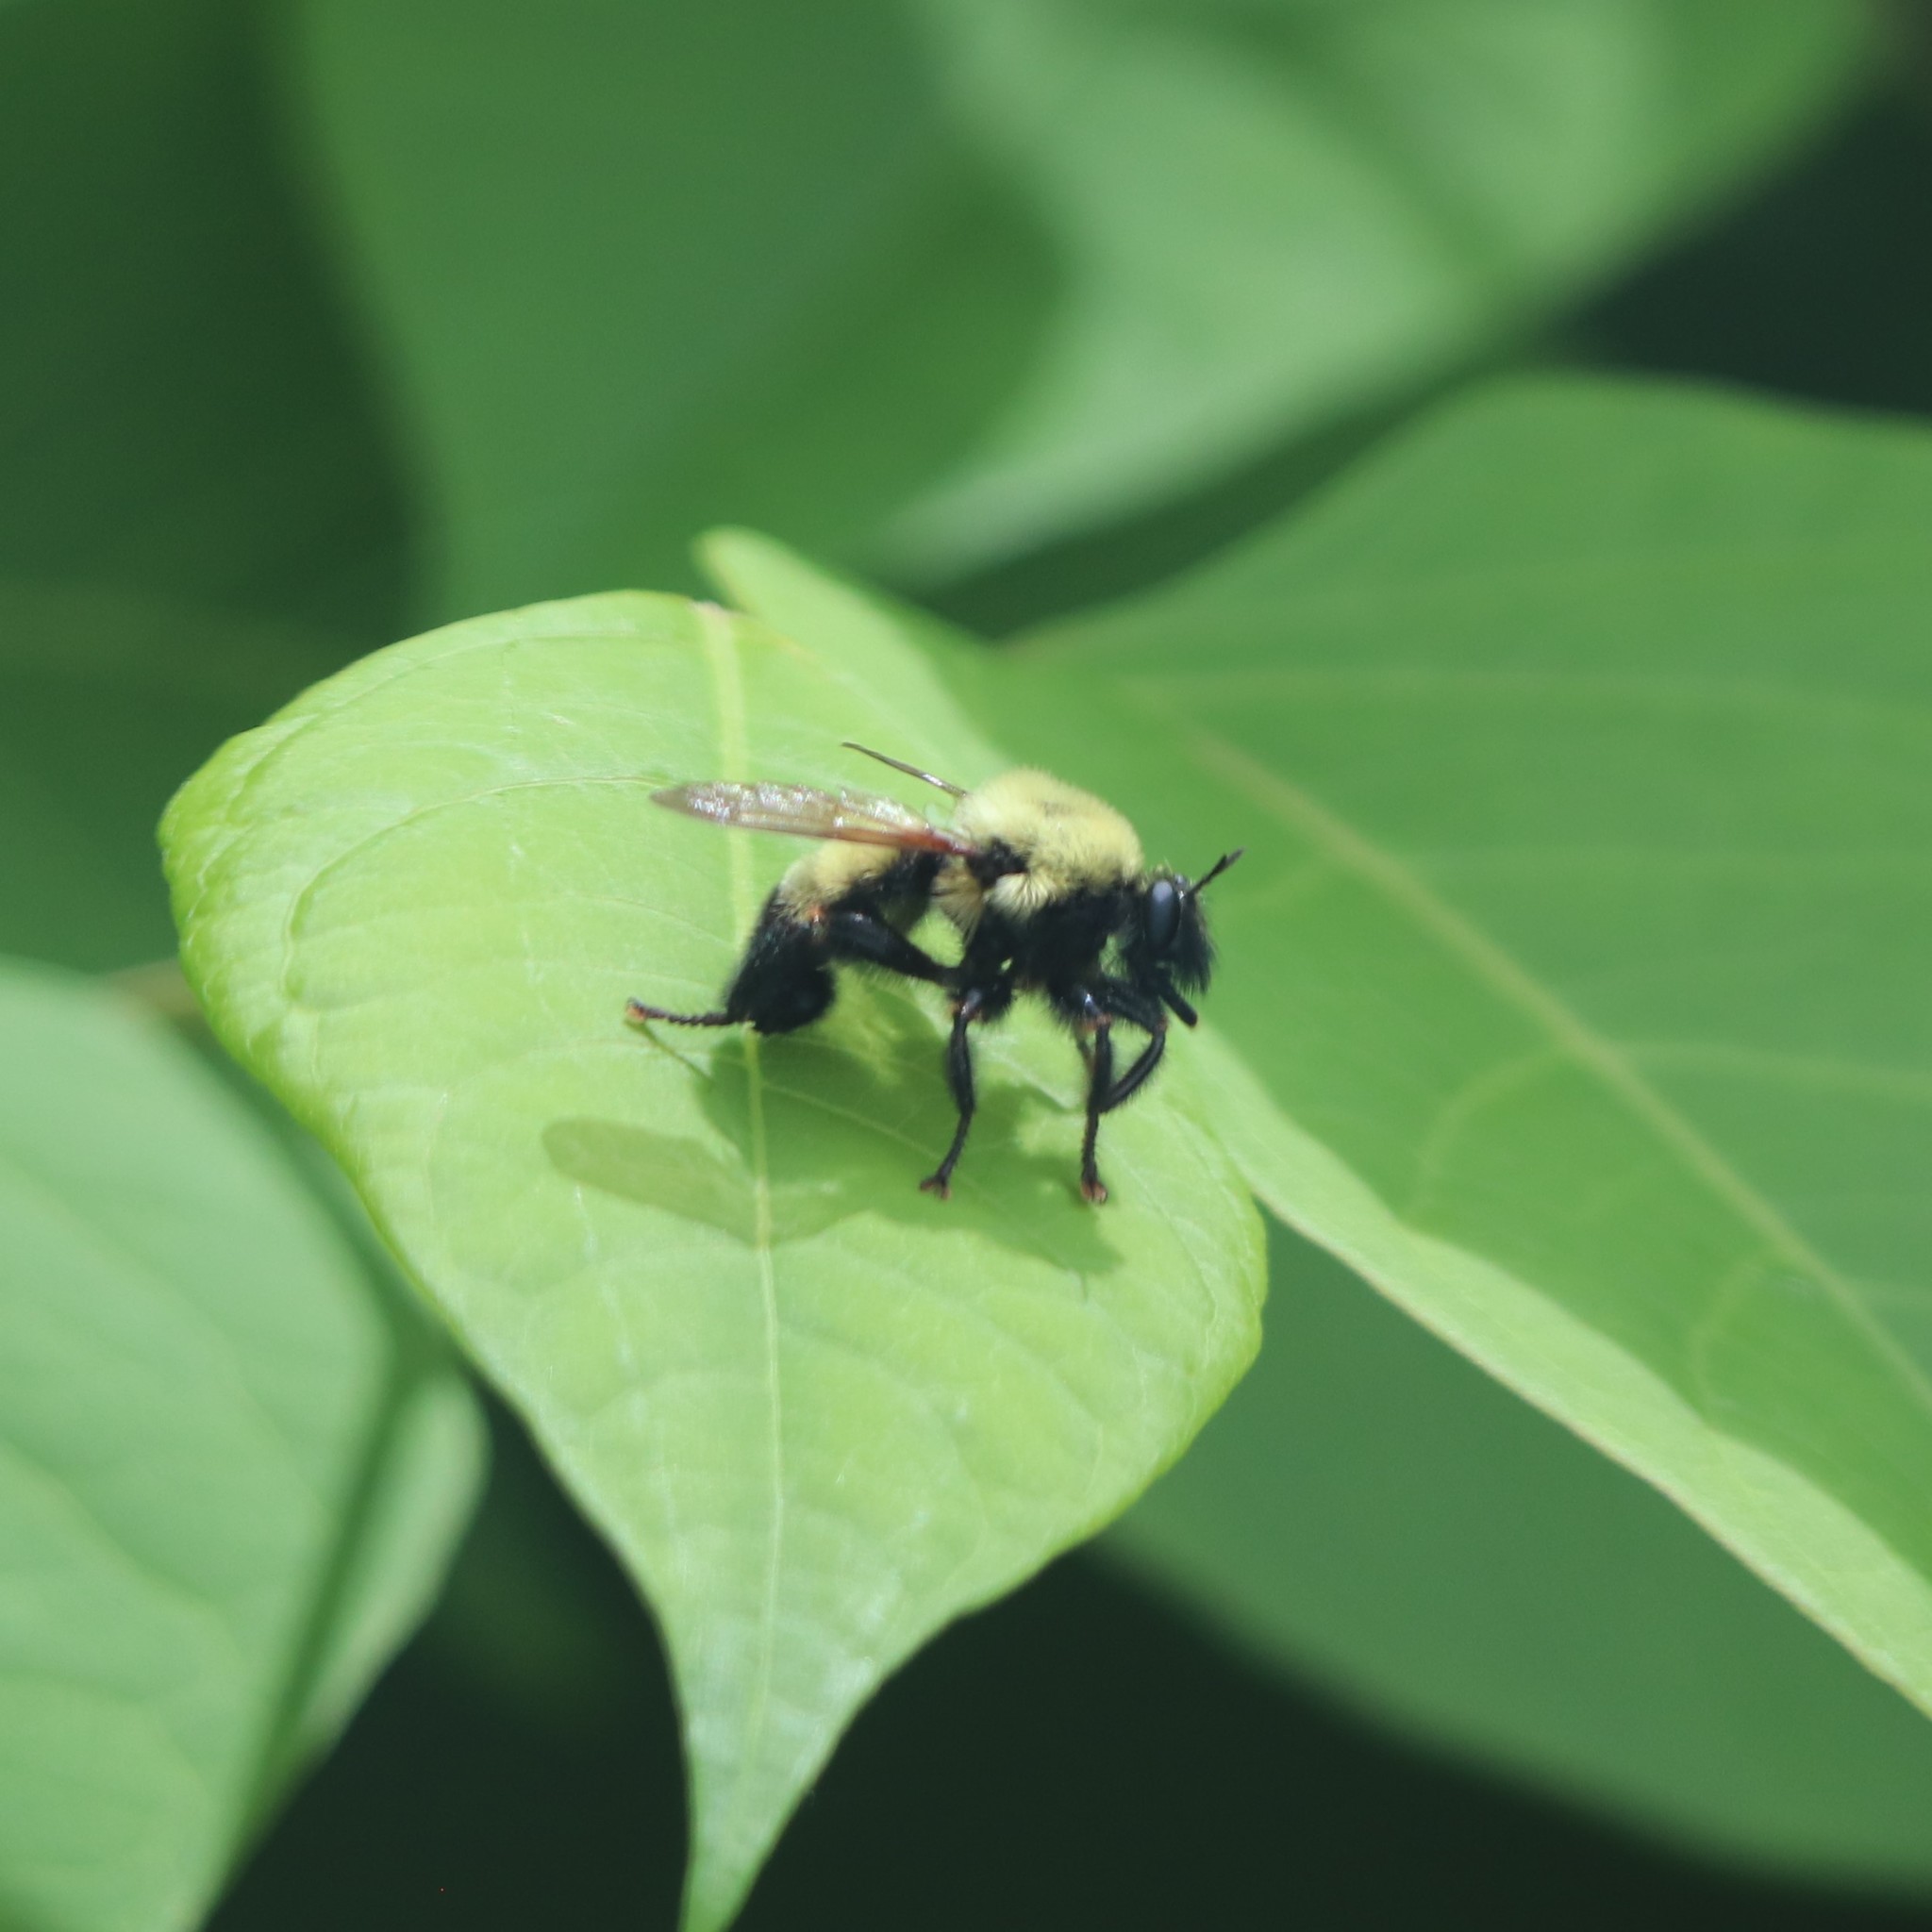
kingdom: Animalia
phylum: Arthropoda
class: Insecta
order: Diptera
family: Asilidae
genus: Laphria
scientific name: Laphria thoracica
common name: Bumble bee mimic robber fly
